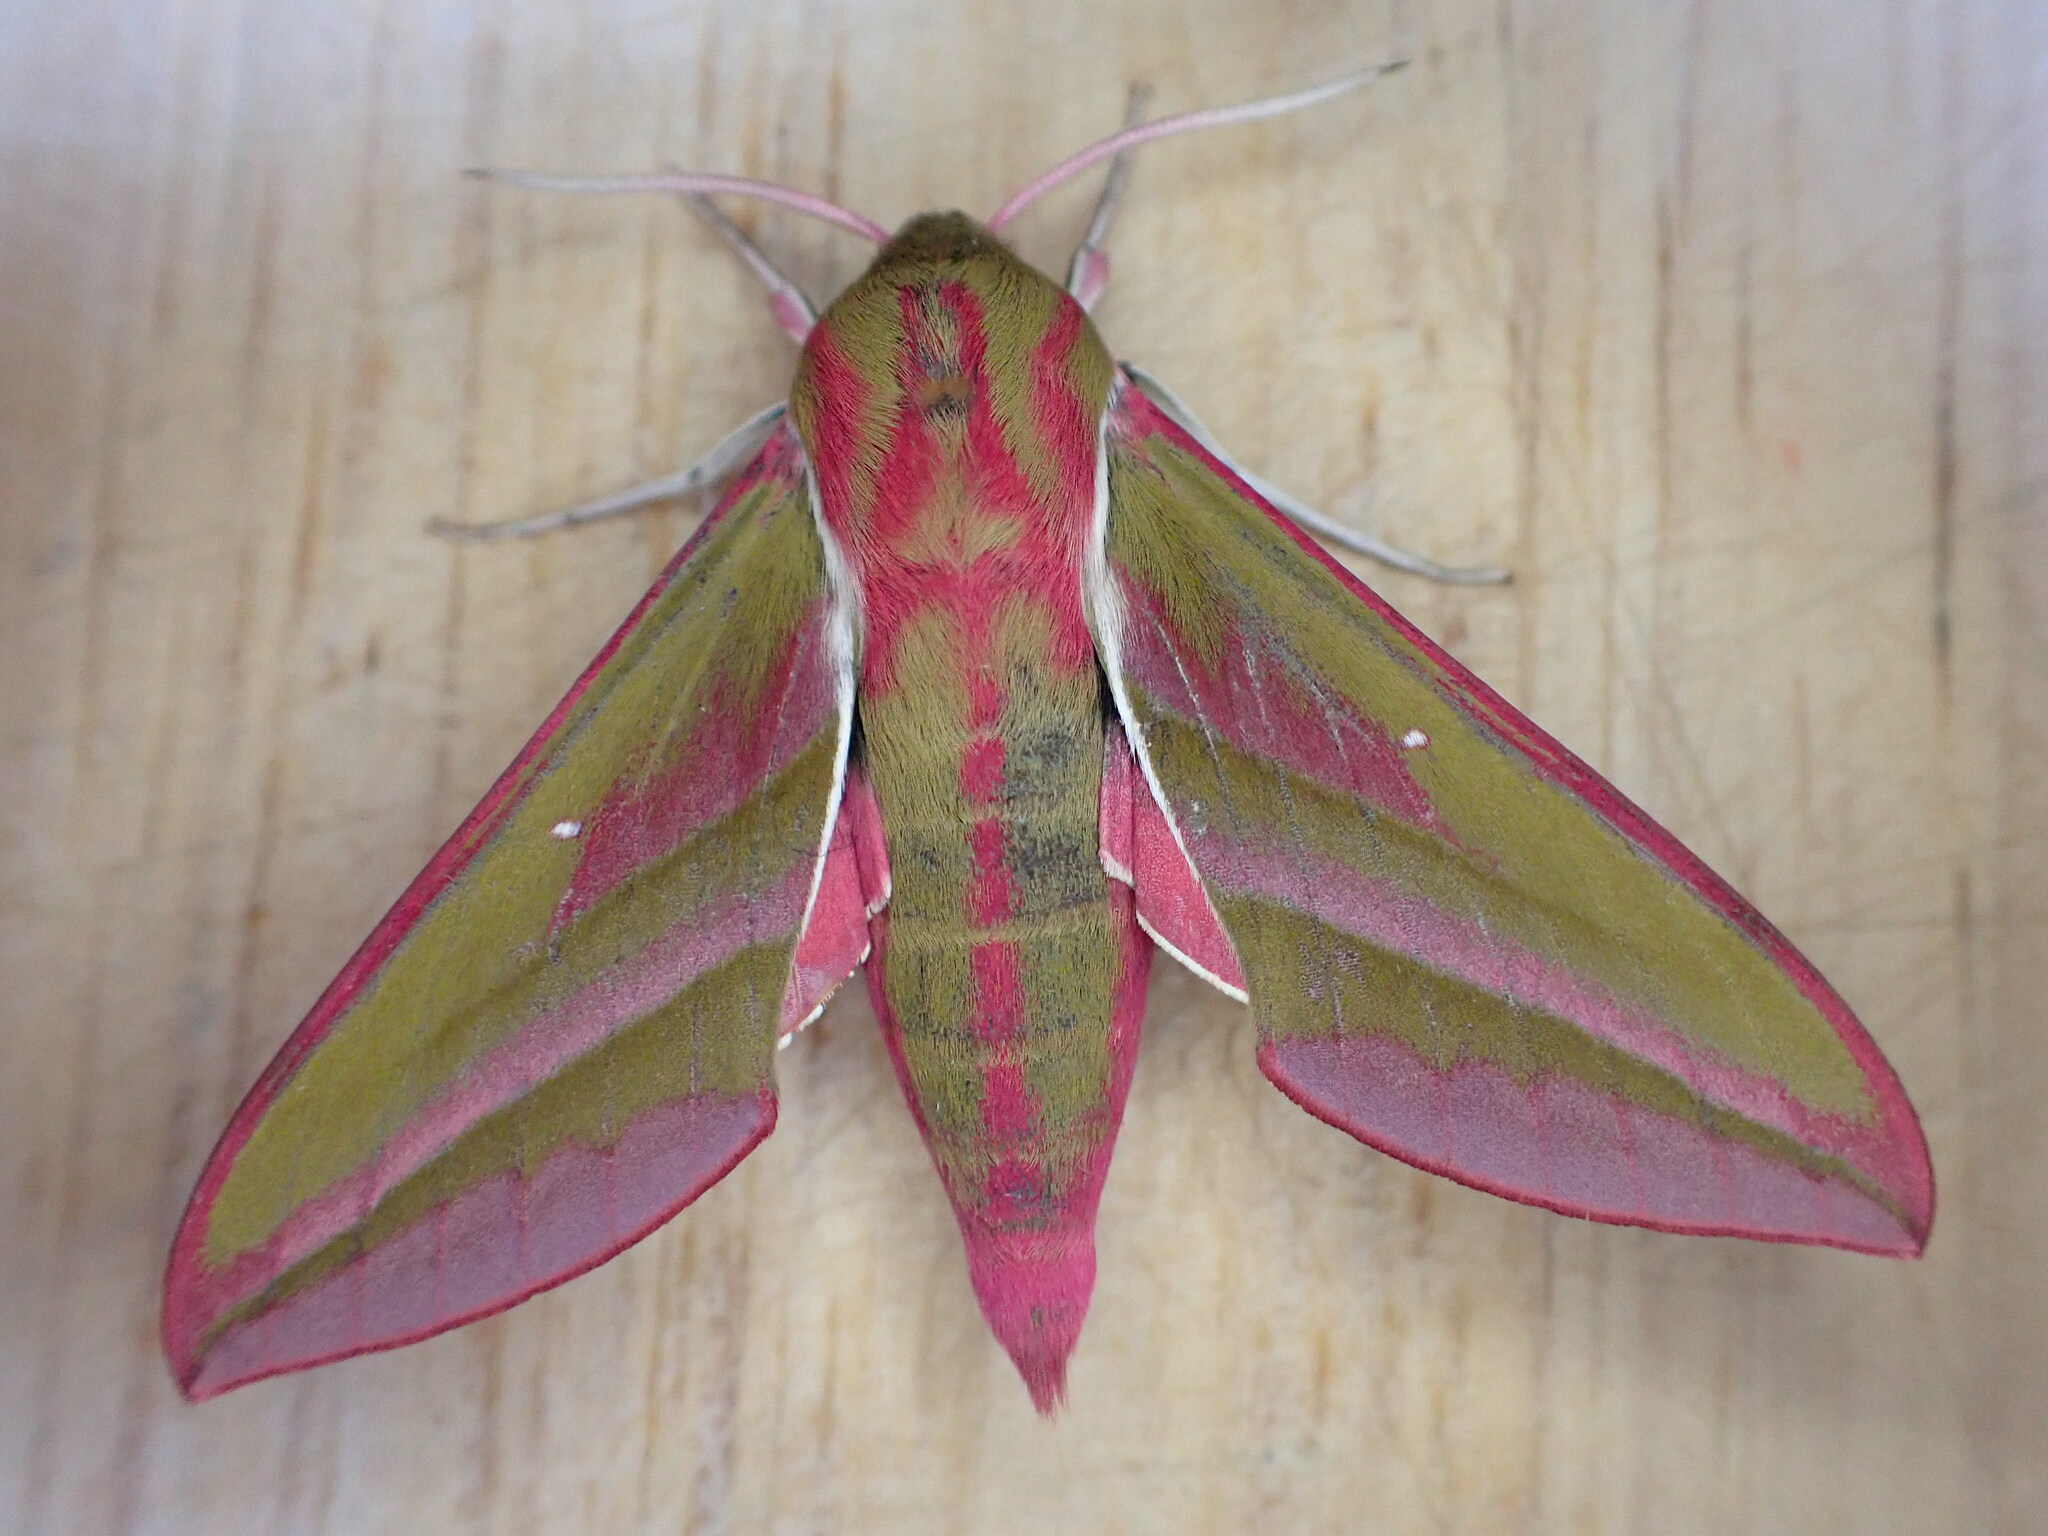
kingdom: Animalia
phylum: Arthropoda
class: Insecta
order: Lepidoptera
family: Sphingidae
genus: Deilephila
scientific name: Deilephila elpenor
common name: Elephant hawk-moth
